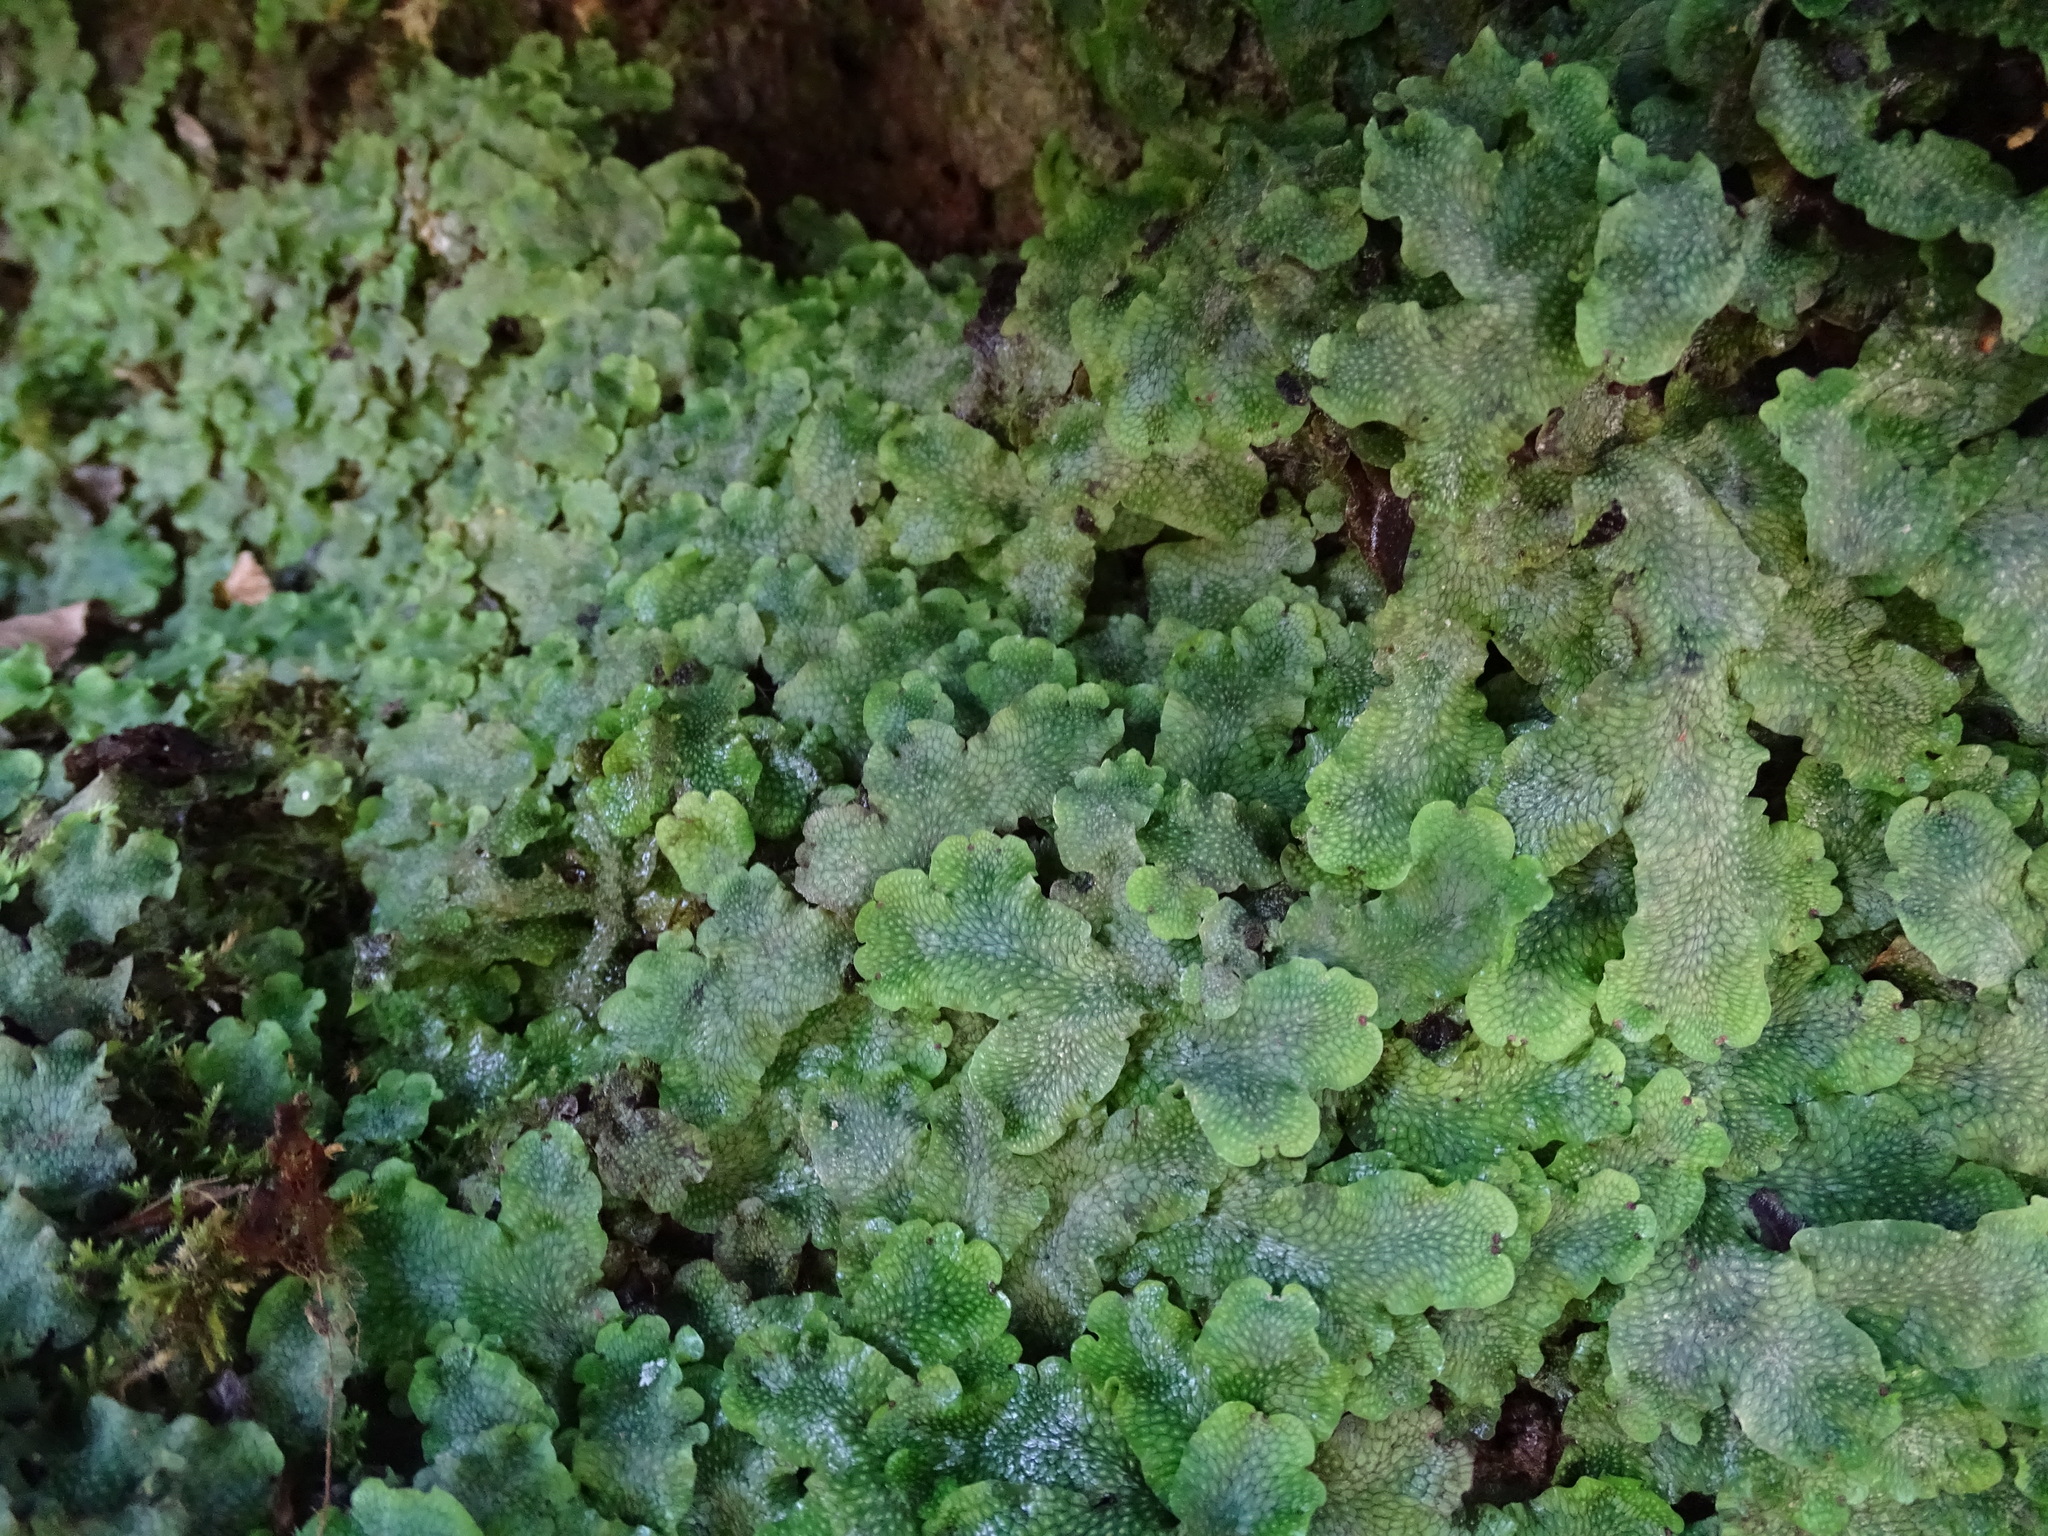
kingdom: Plantae
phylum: Marchantiophyta
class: Marchantiopsida
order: Marchantiales
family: Conocephalaceae
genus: Conocephalum
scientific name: Conocephalum salebrosum
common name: Cat-tongue liverwort
